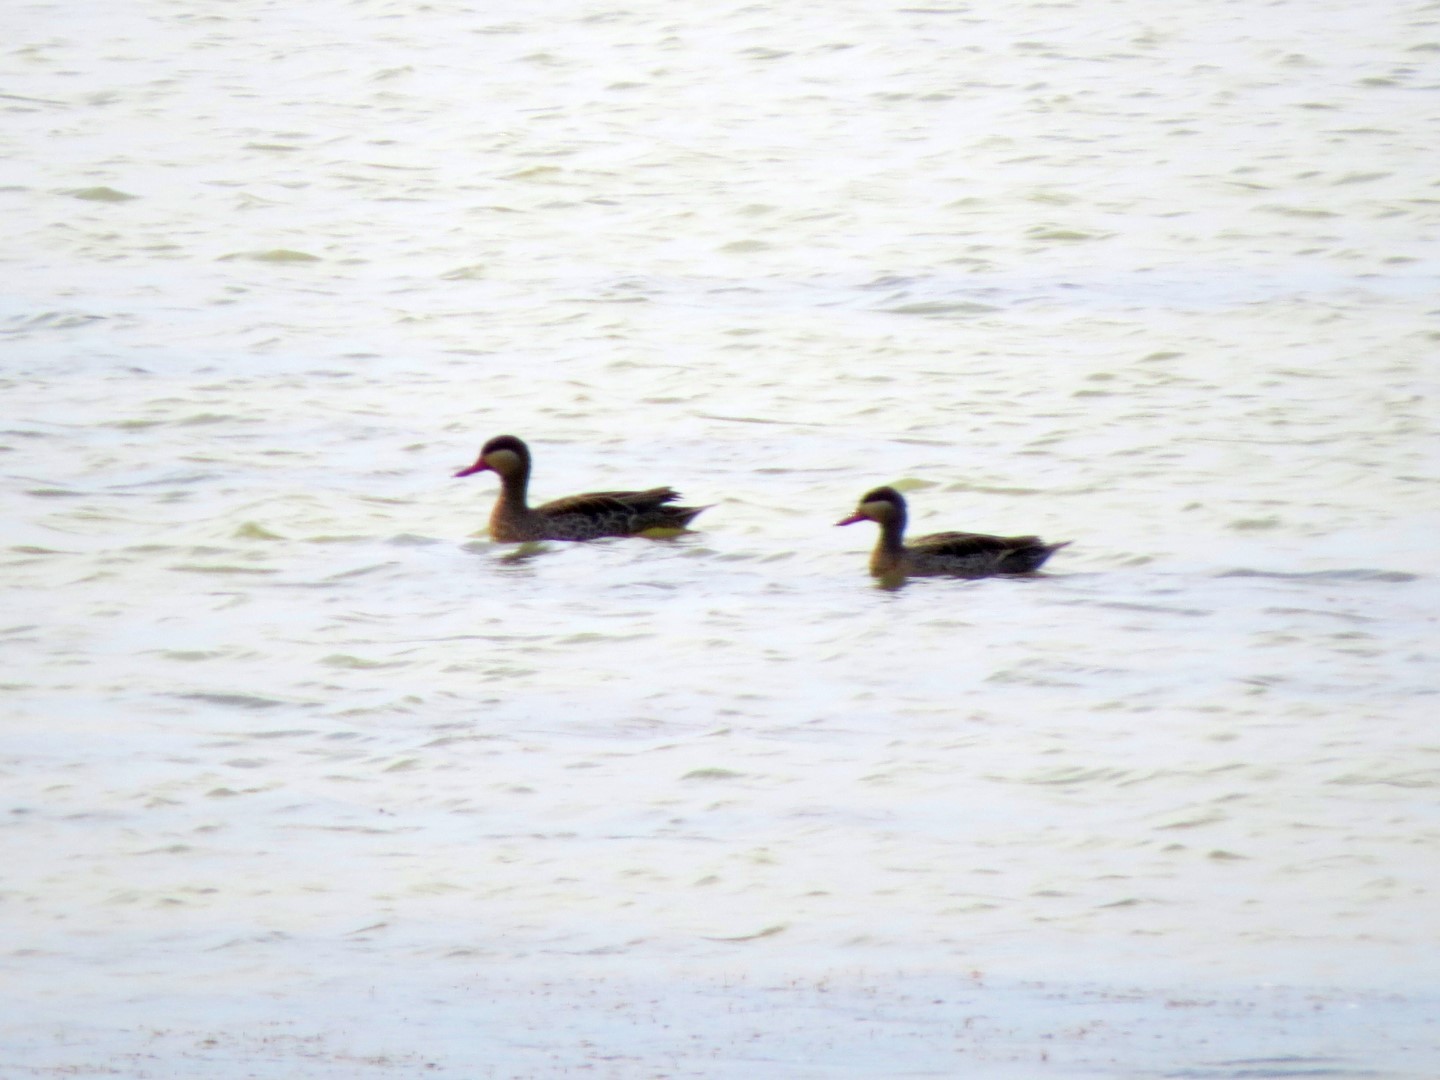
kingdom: Animalia
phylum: Chordata
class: Aves
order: Anseriformes
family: Anatidae
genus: Anas
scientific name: Anas erythrorhyncha
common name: Red-billed teal
